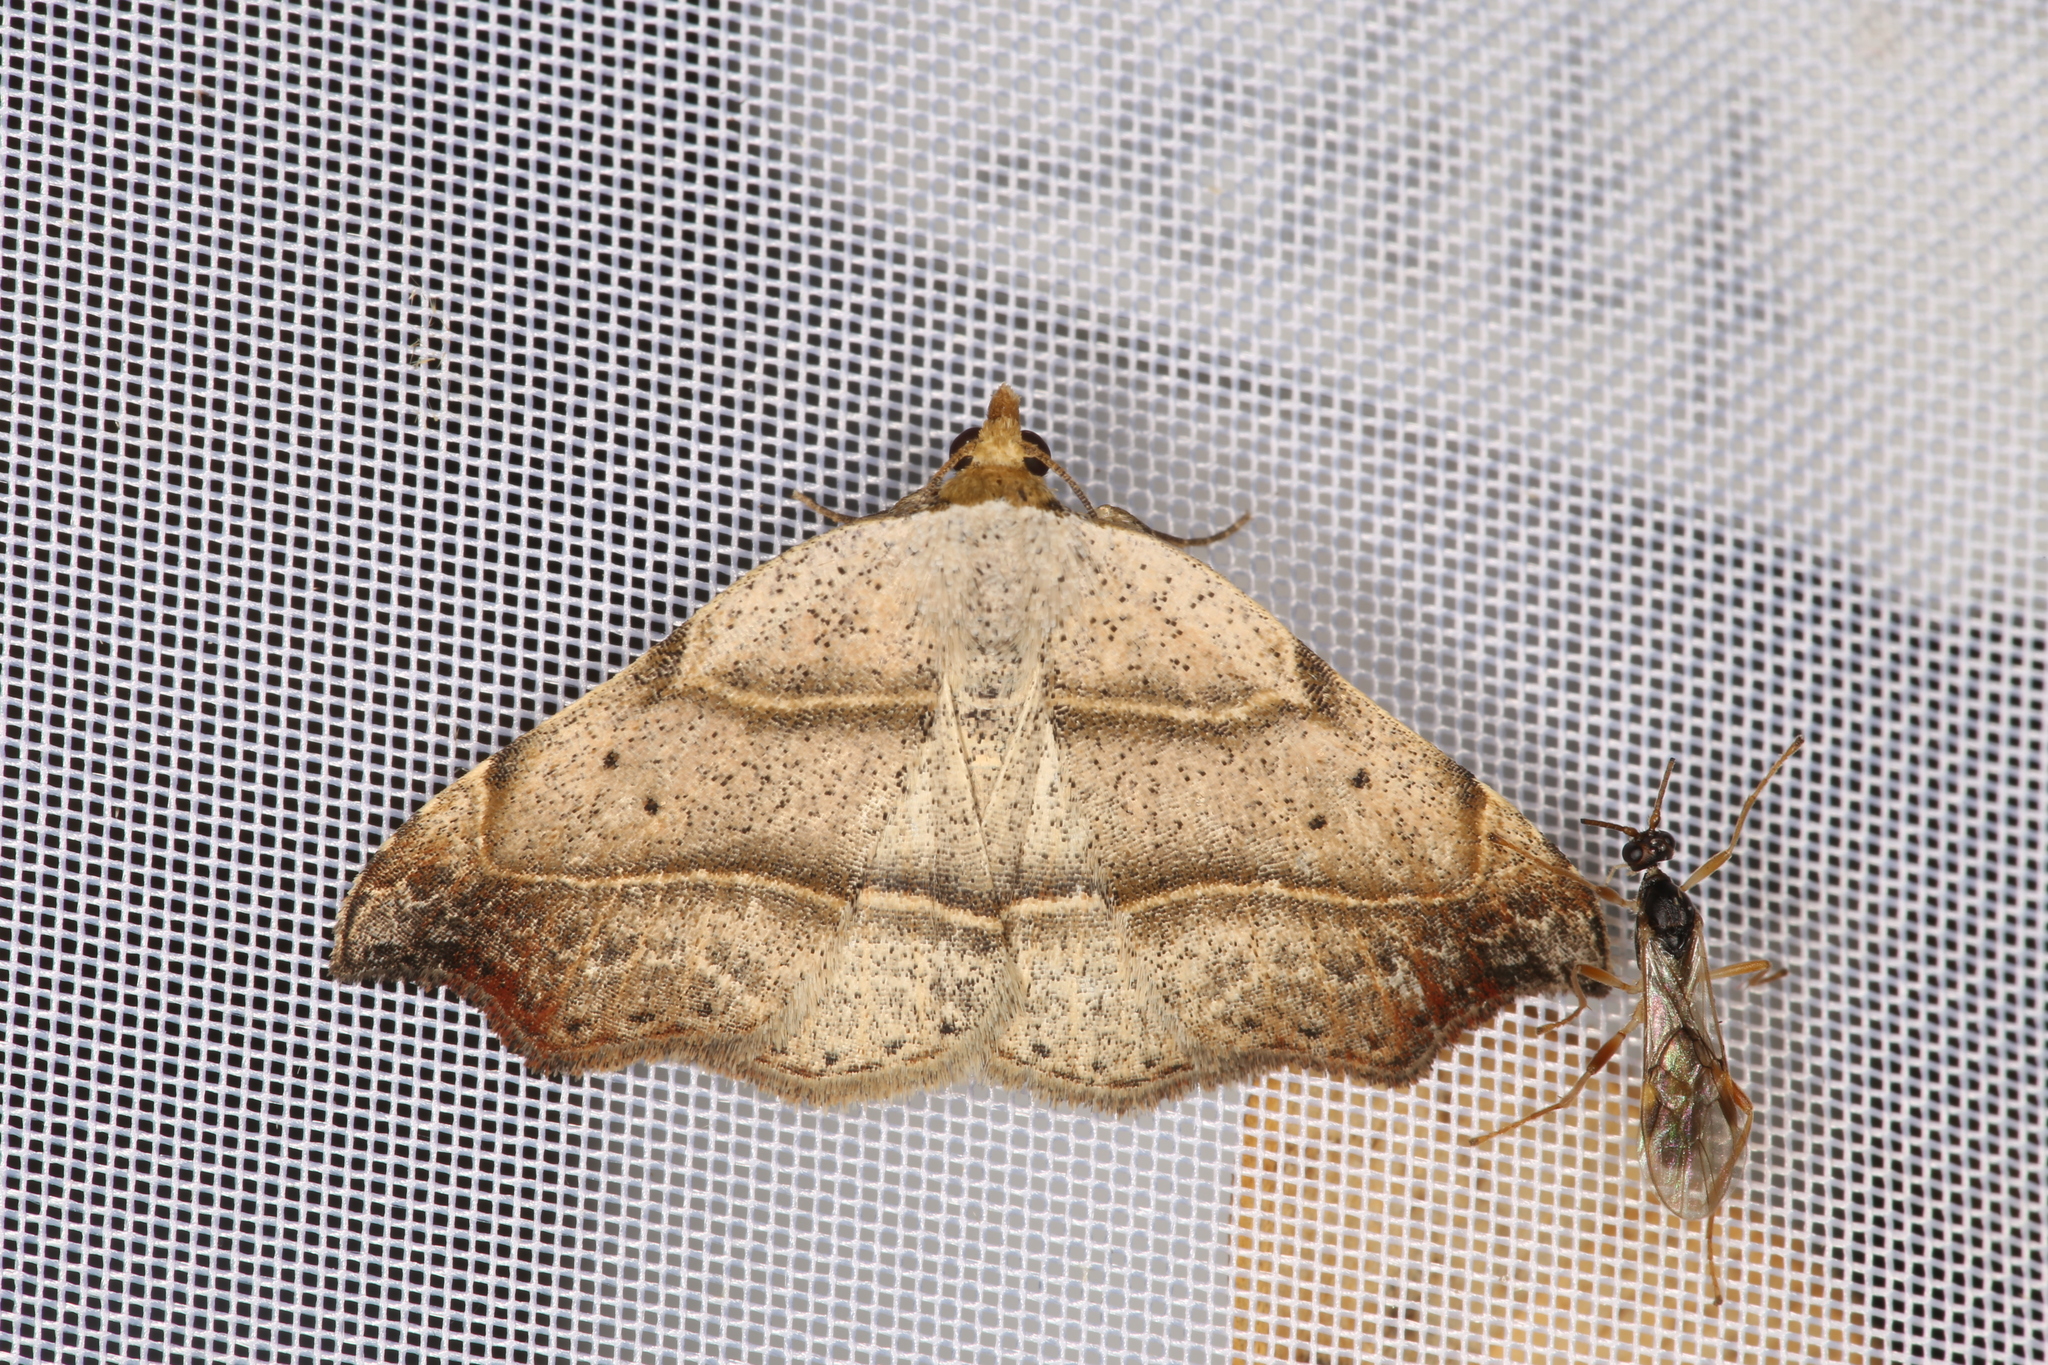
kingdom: Animalia
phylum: Arthropoda
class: Insecta
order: Lepidoptera
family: Erebidae
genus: Laspeyria
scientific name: Laspeyria flexula
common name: Beautiful hook-tip
